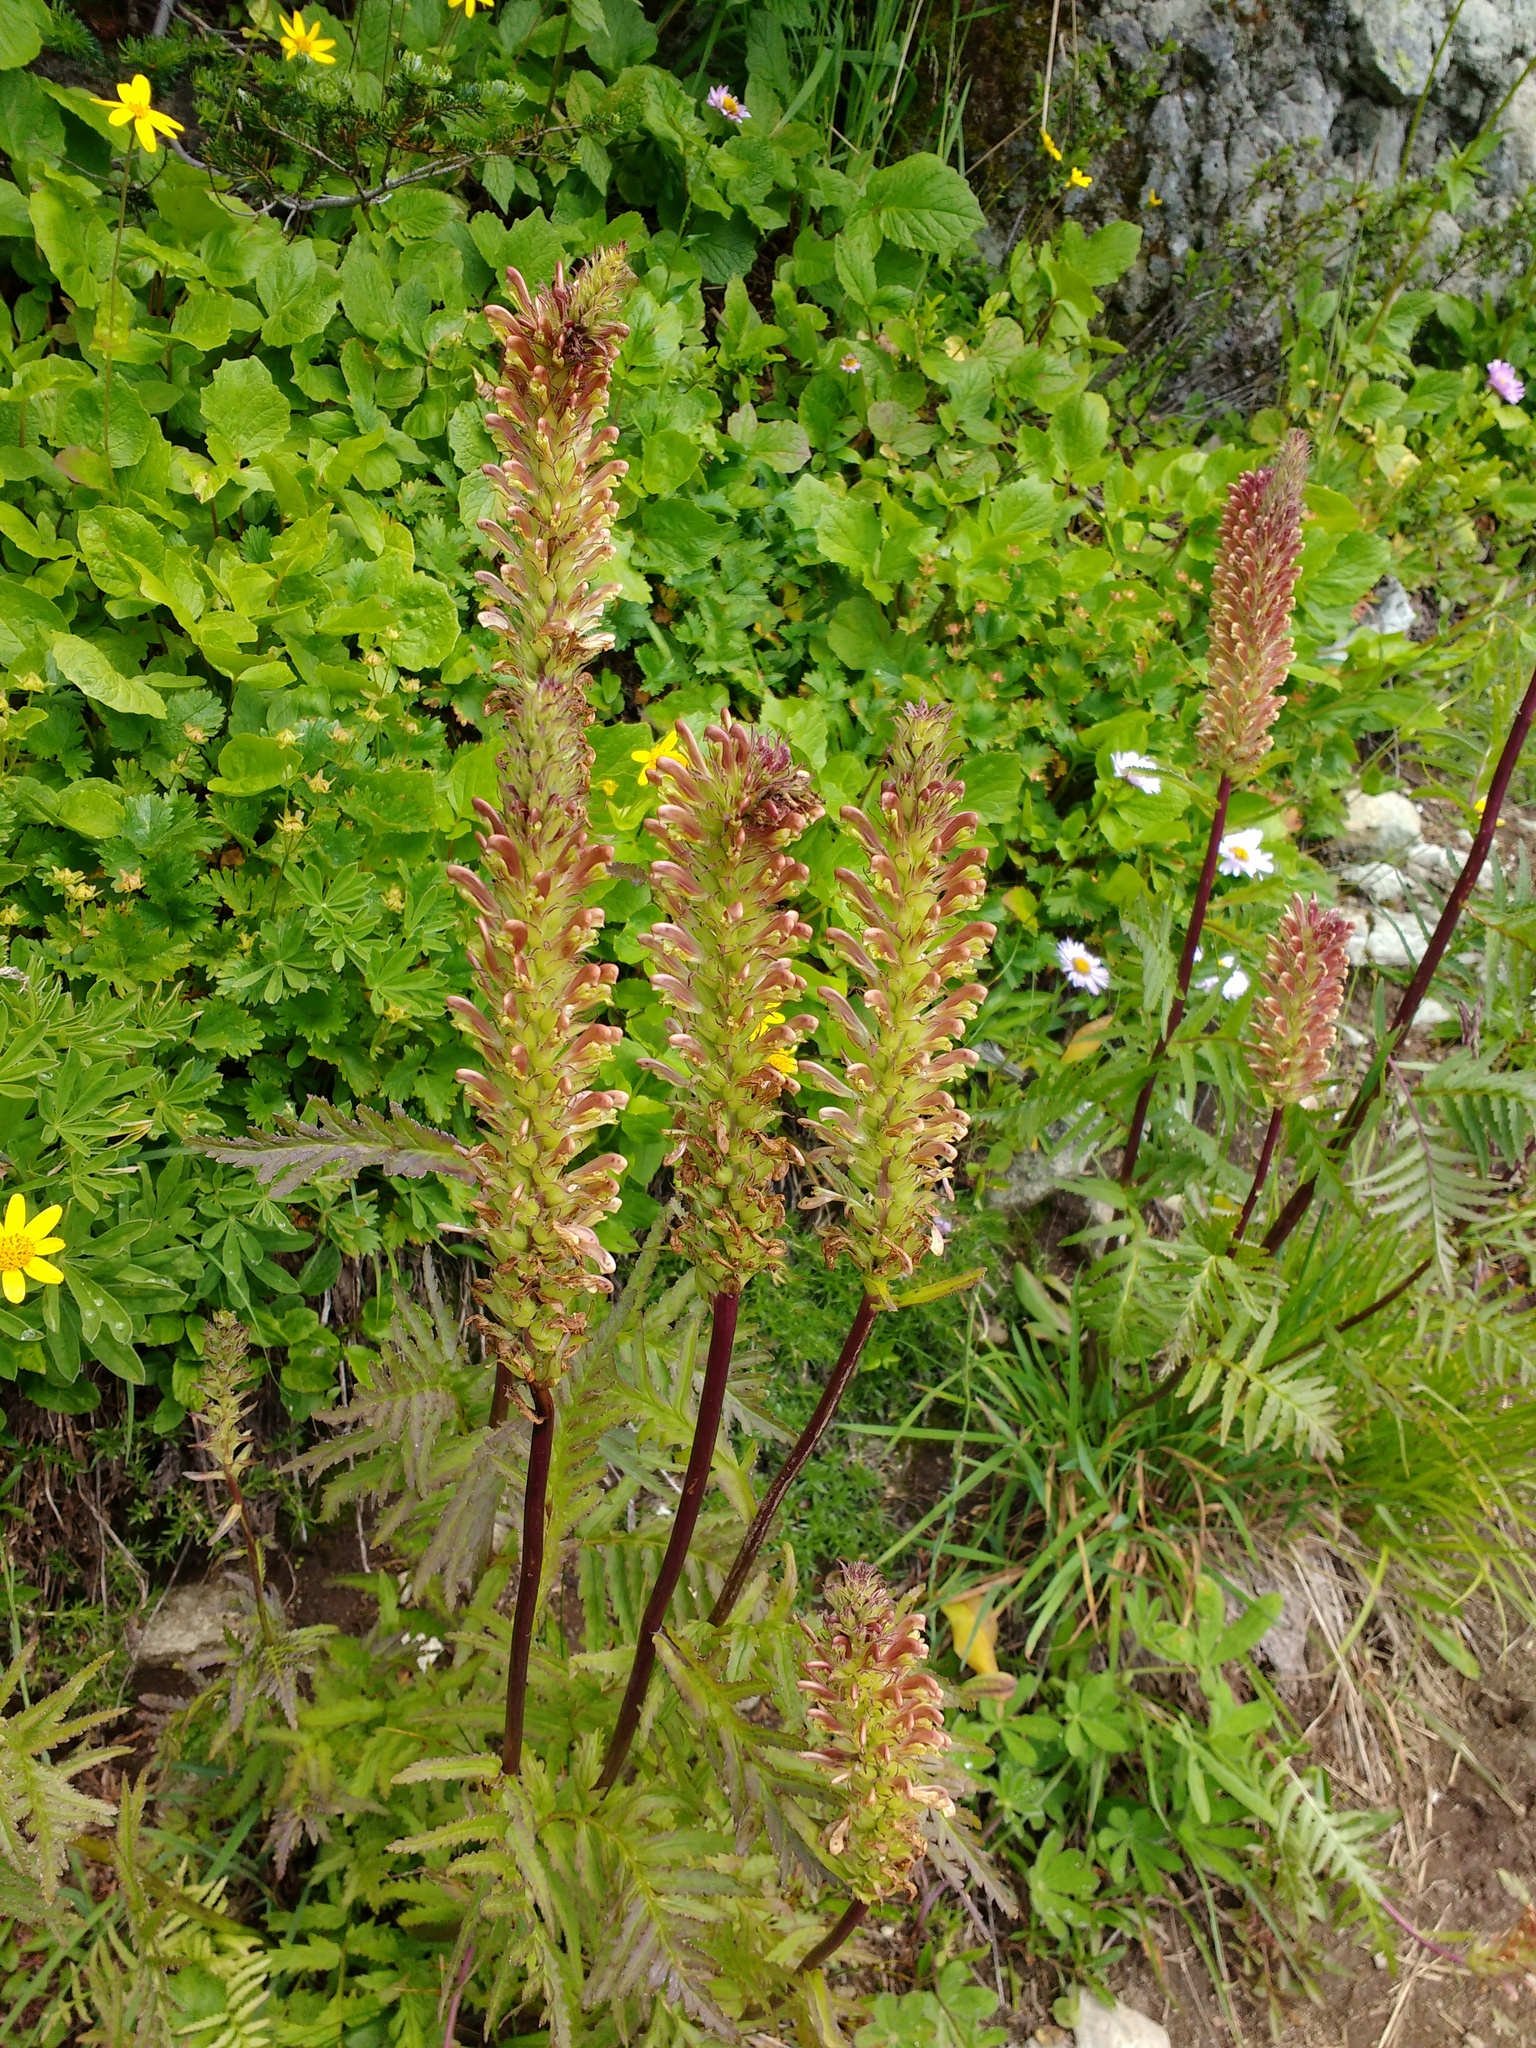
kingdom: Plantae
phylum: Tracheophyta
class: Magnoliopsida
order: Lamiales
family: Orobanchaceae
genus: Pedicularis
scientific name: Pedicularis bracteosa
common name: Bracted lousewort
